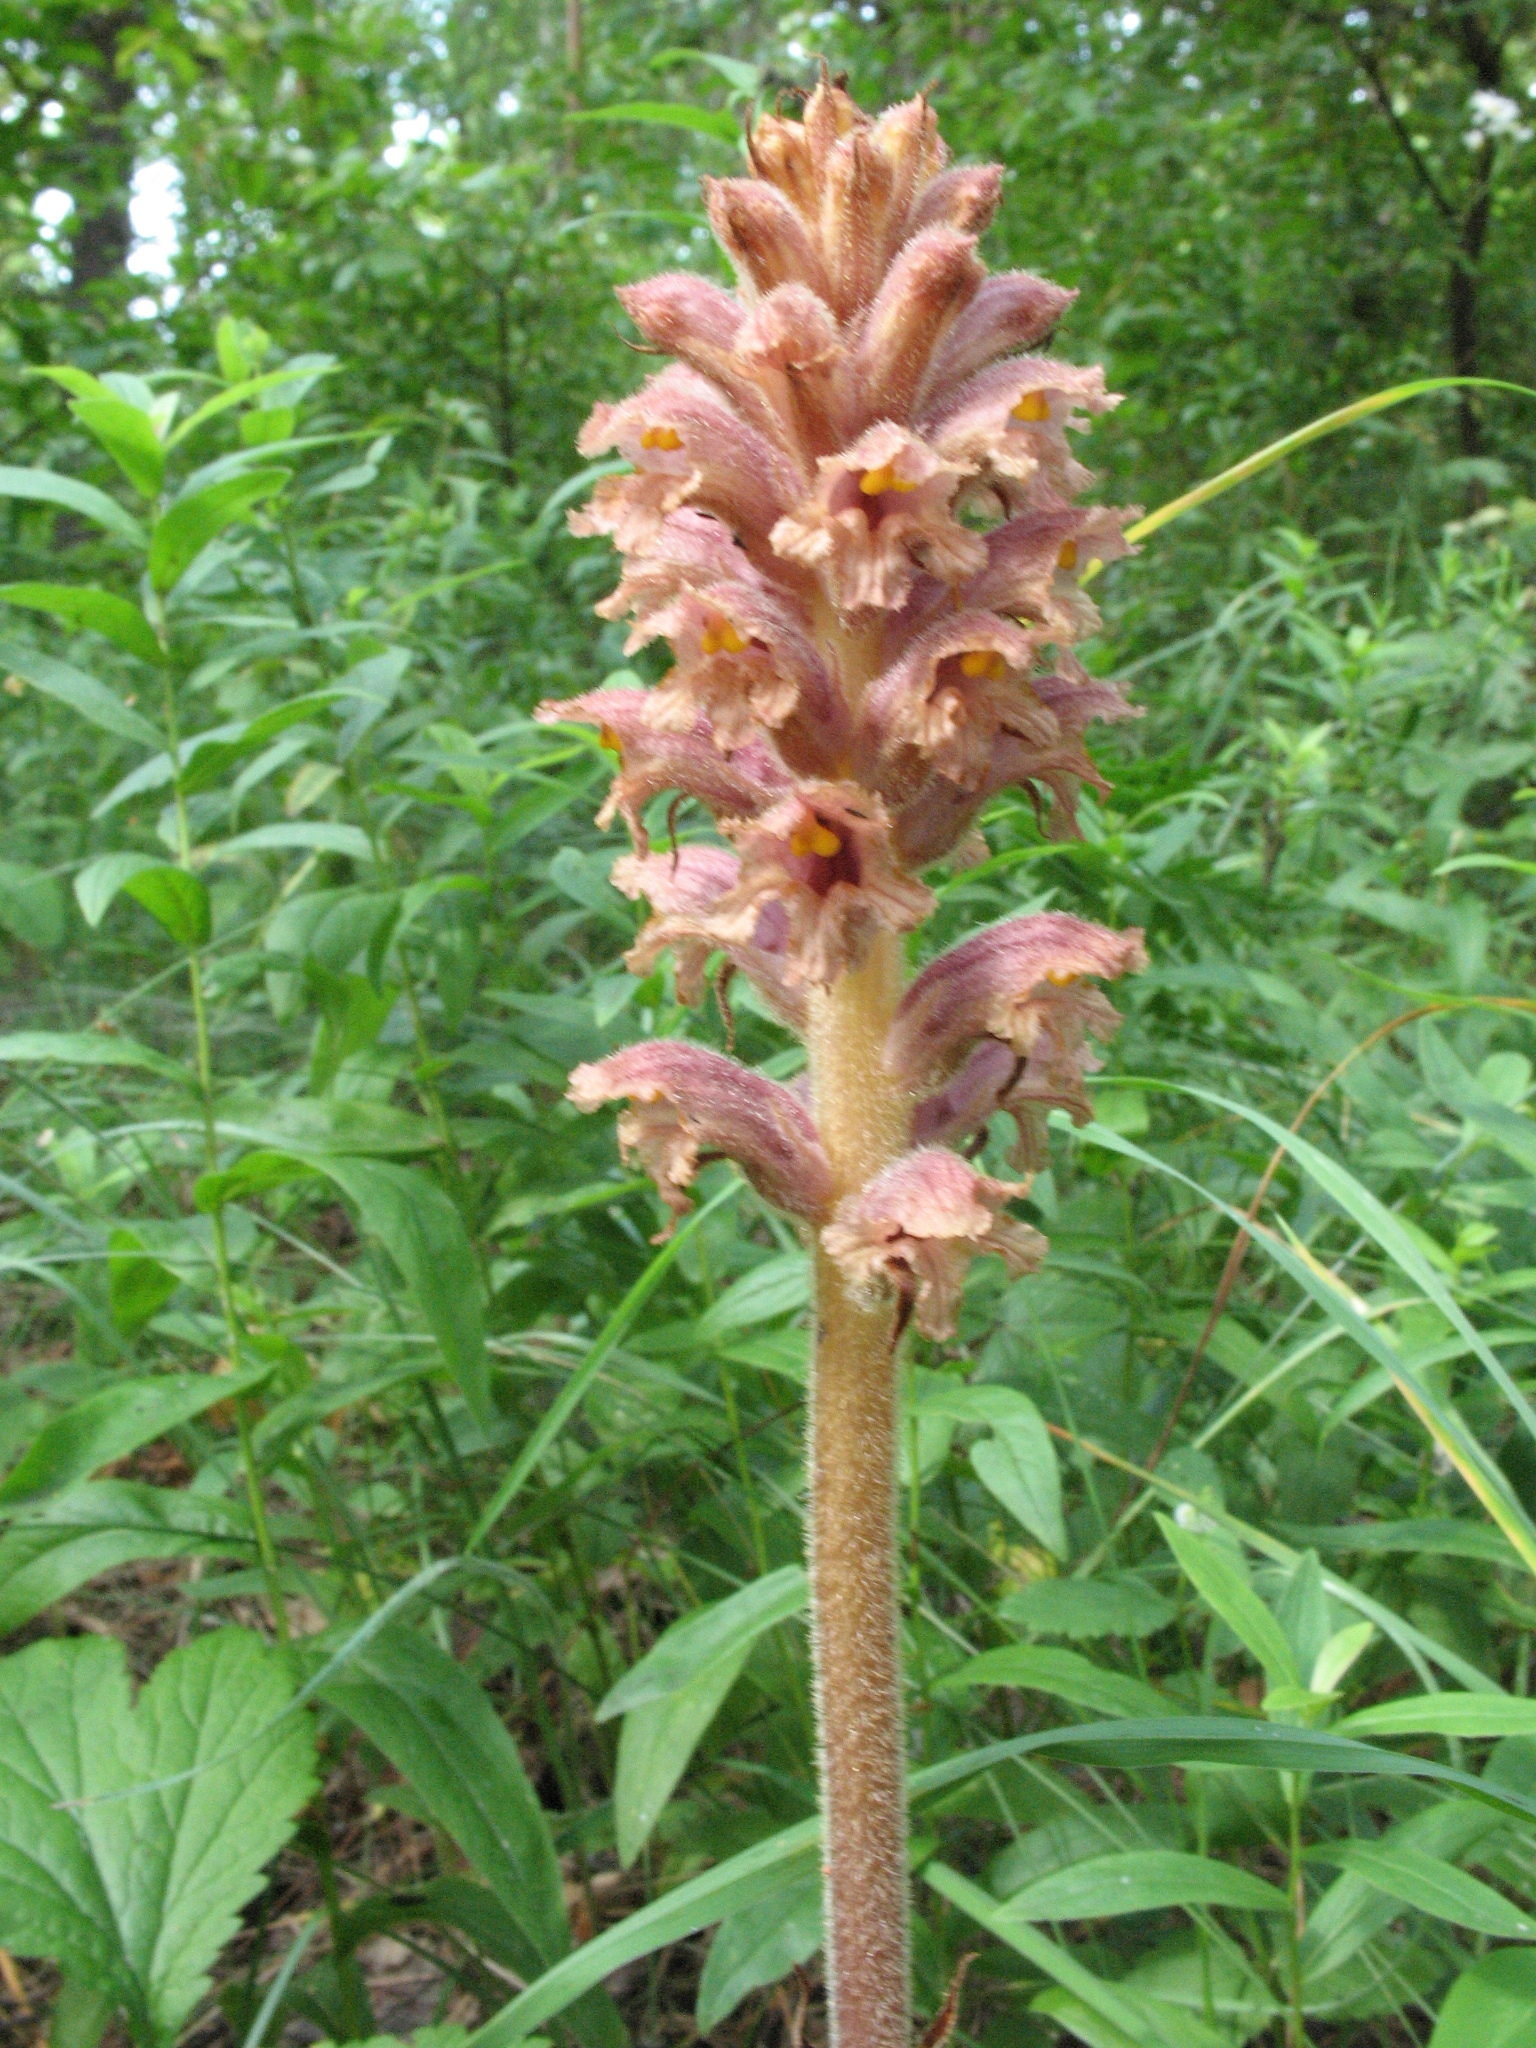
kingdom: Plantae
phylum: Tracheophyta
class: Magnoliopsida
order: Lamiales
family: Orobanchaceae
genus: Orobanche
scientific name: Orobanche alsatica
